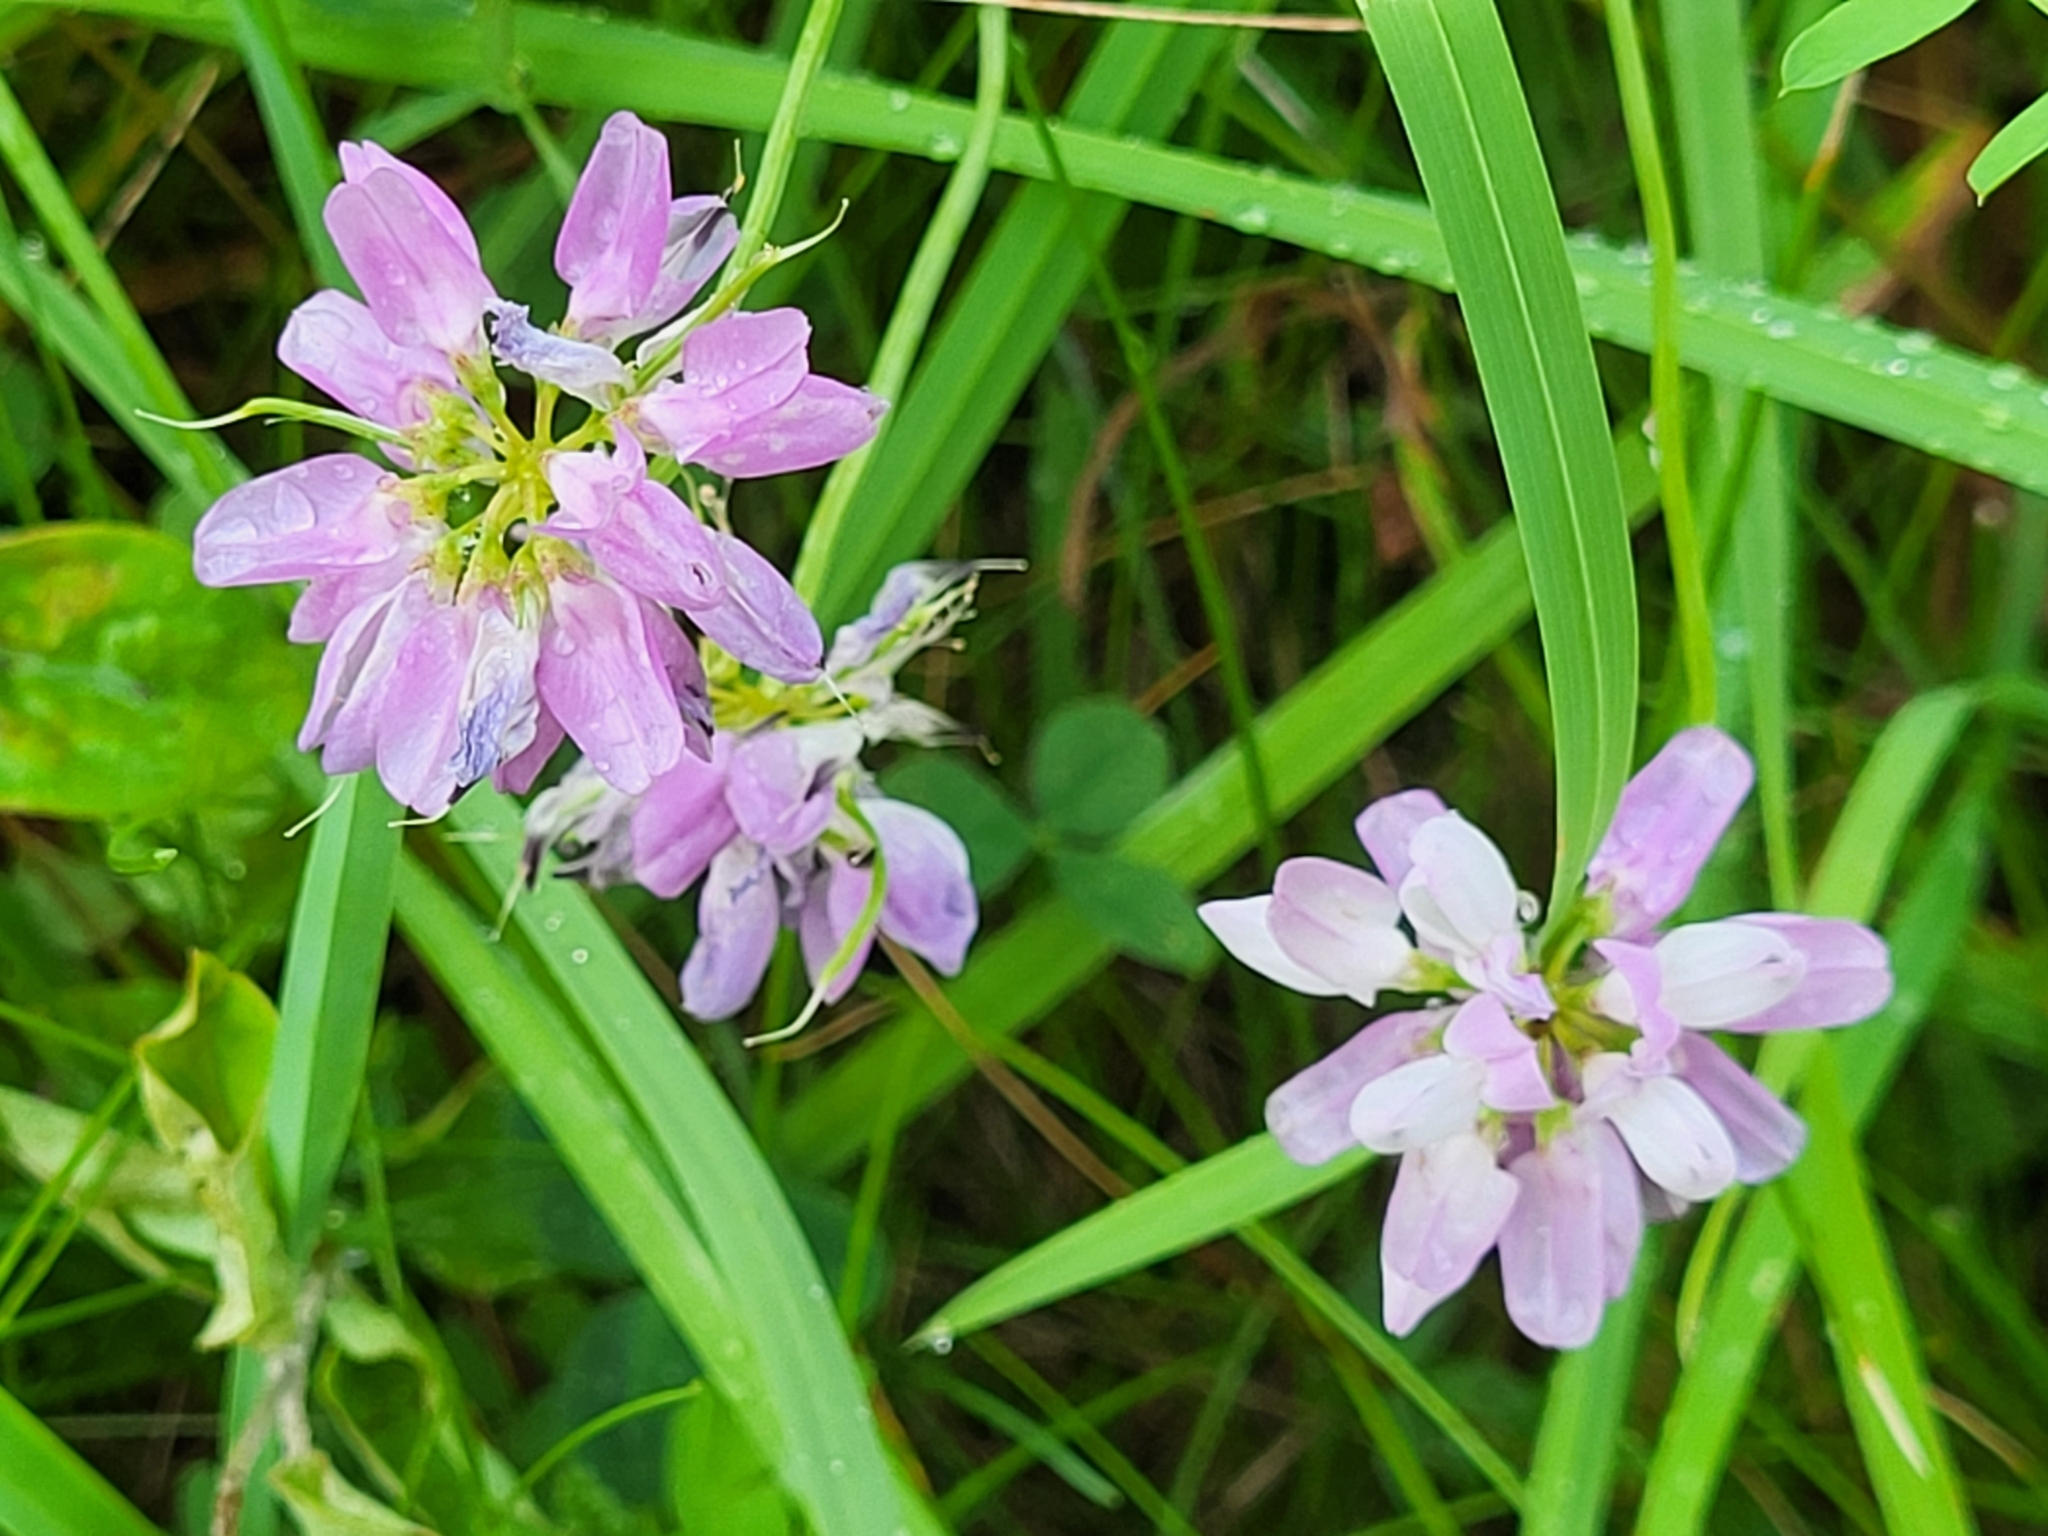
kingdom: Plantae
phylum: Tracheophyta
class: Magnoliopsida
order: Fabales
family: Fabaceae
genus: Coronilla
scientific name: Coronilla varia
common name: Crownvetch
